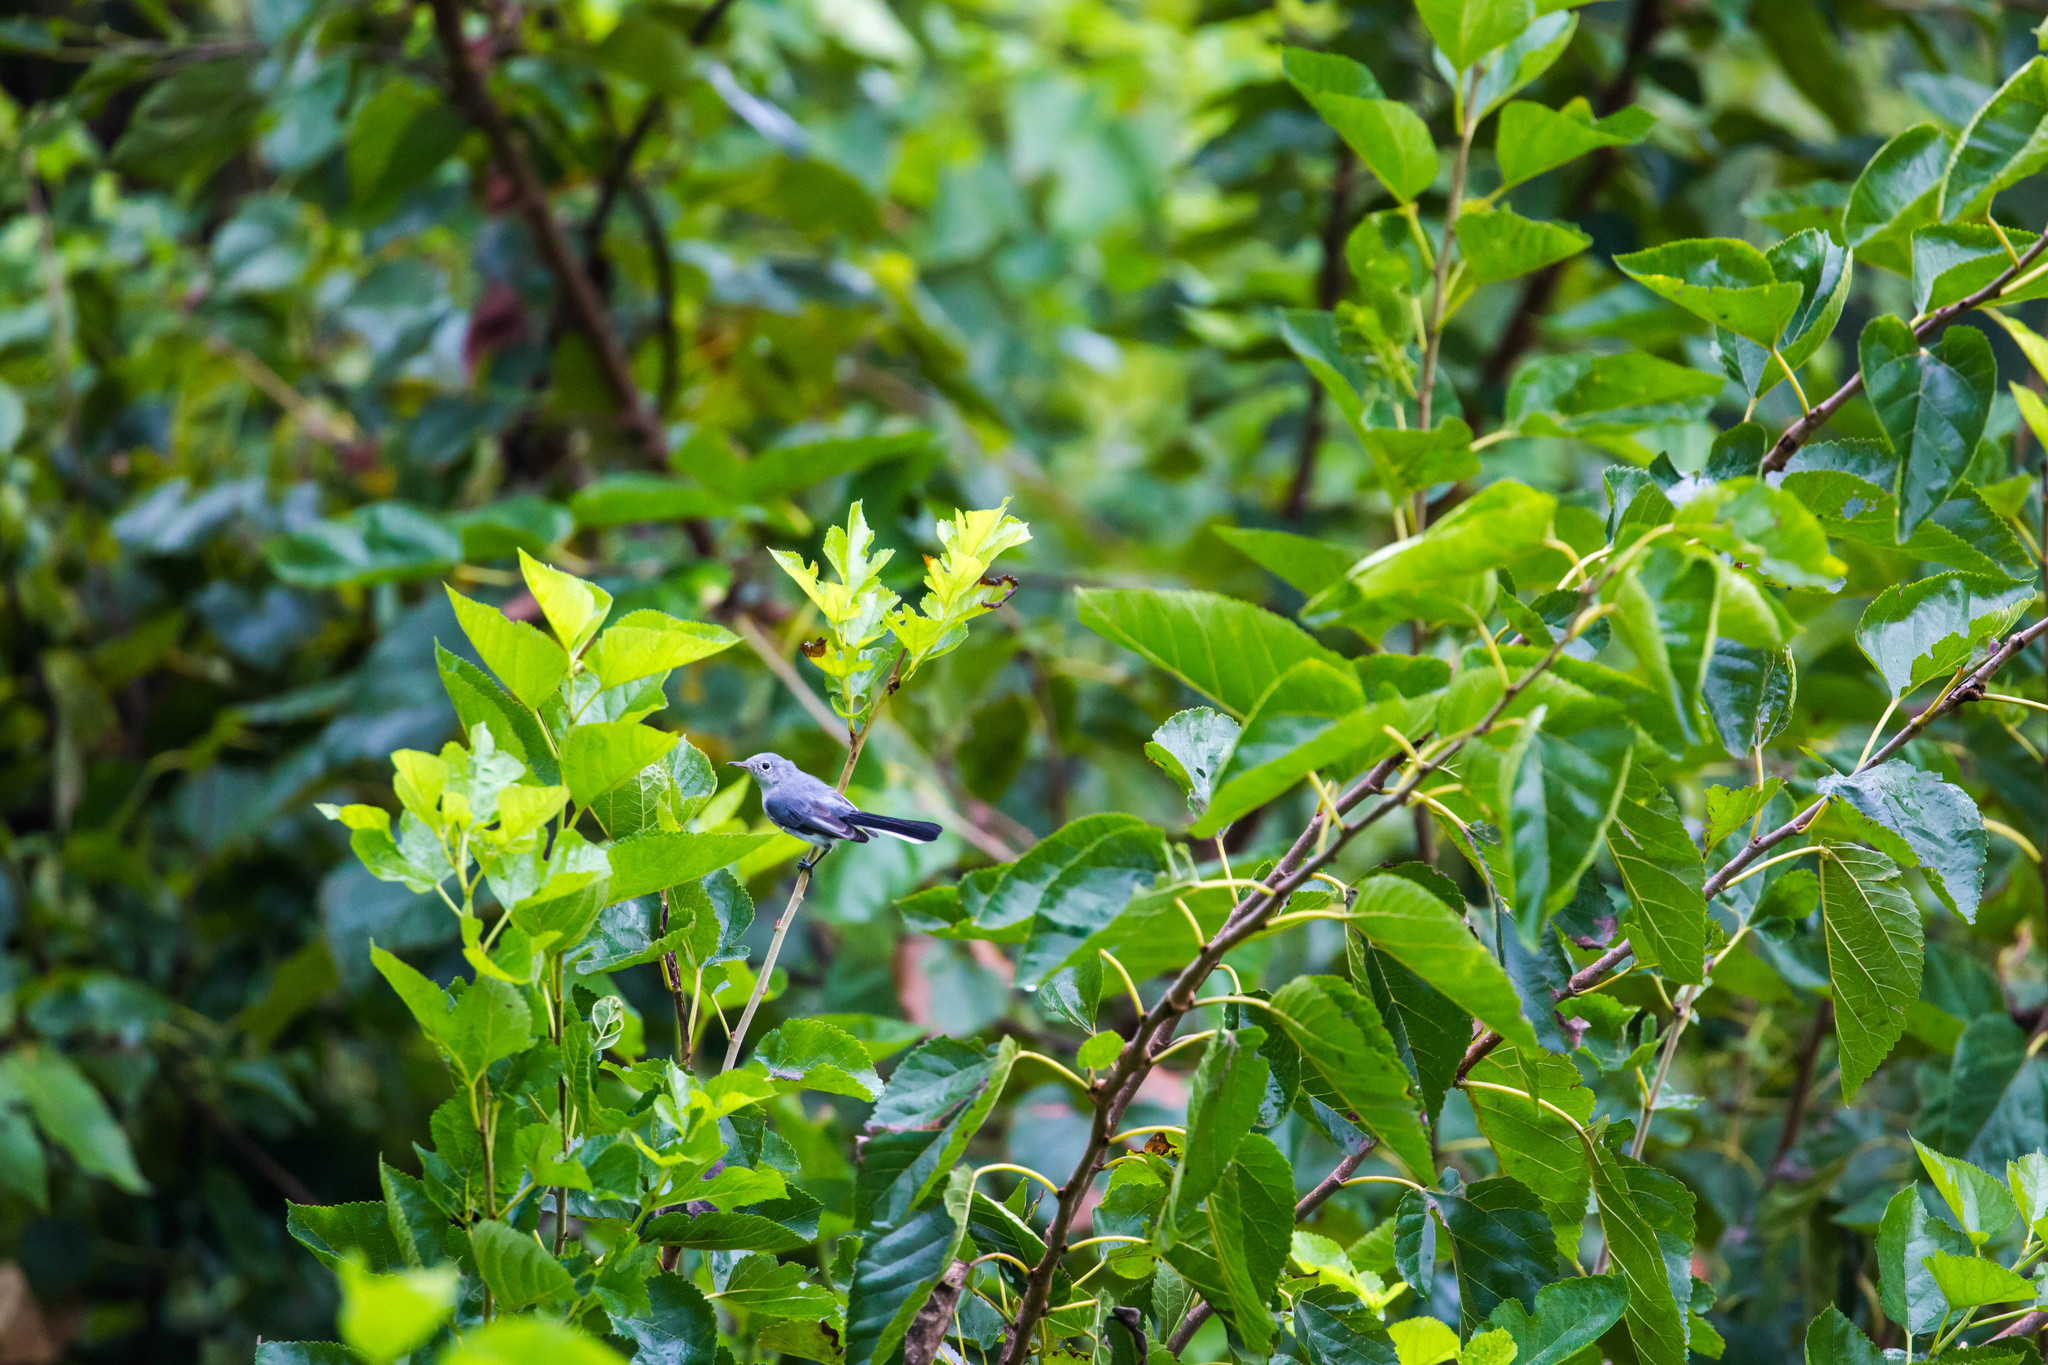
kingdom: Animalia
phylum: Chordata
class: Aves
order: Passeriformes
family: Polioptilidae
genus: Polioptila
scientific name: Polioptila caerulea
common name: Blue-gray gnatcatcher
